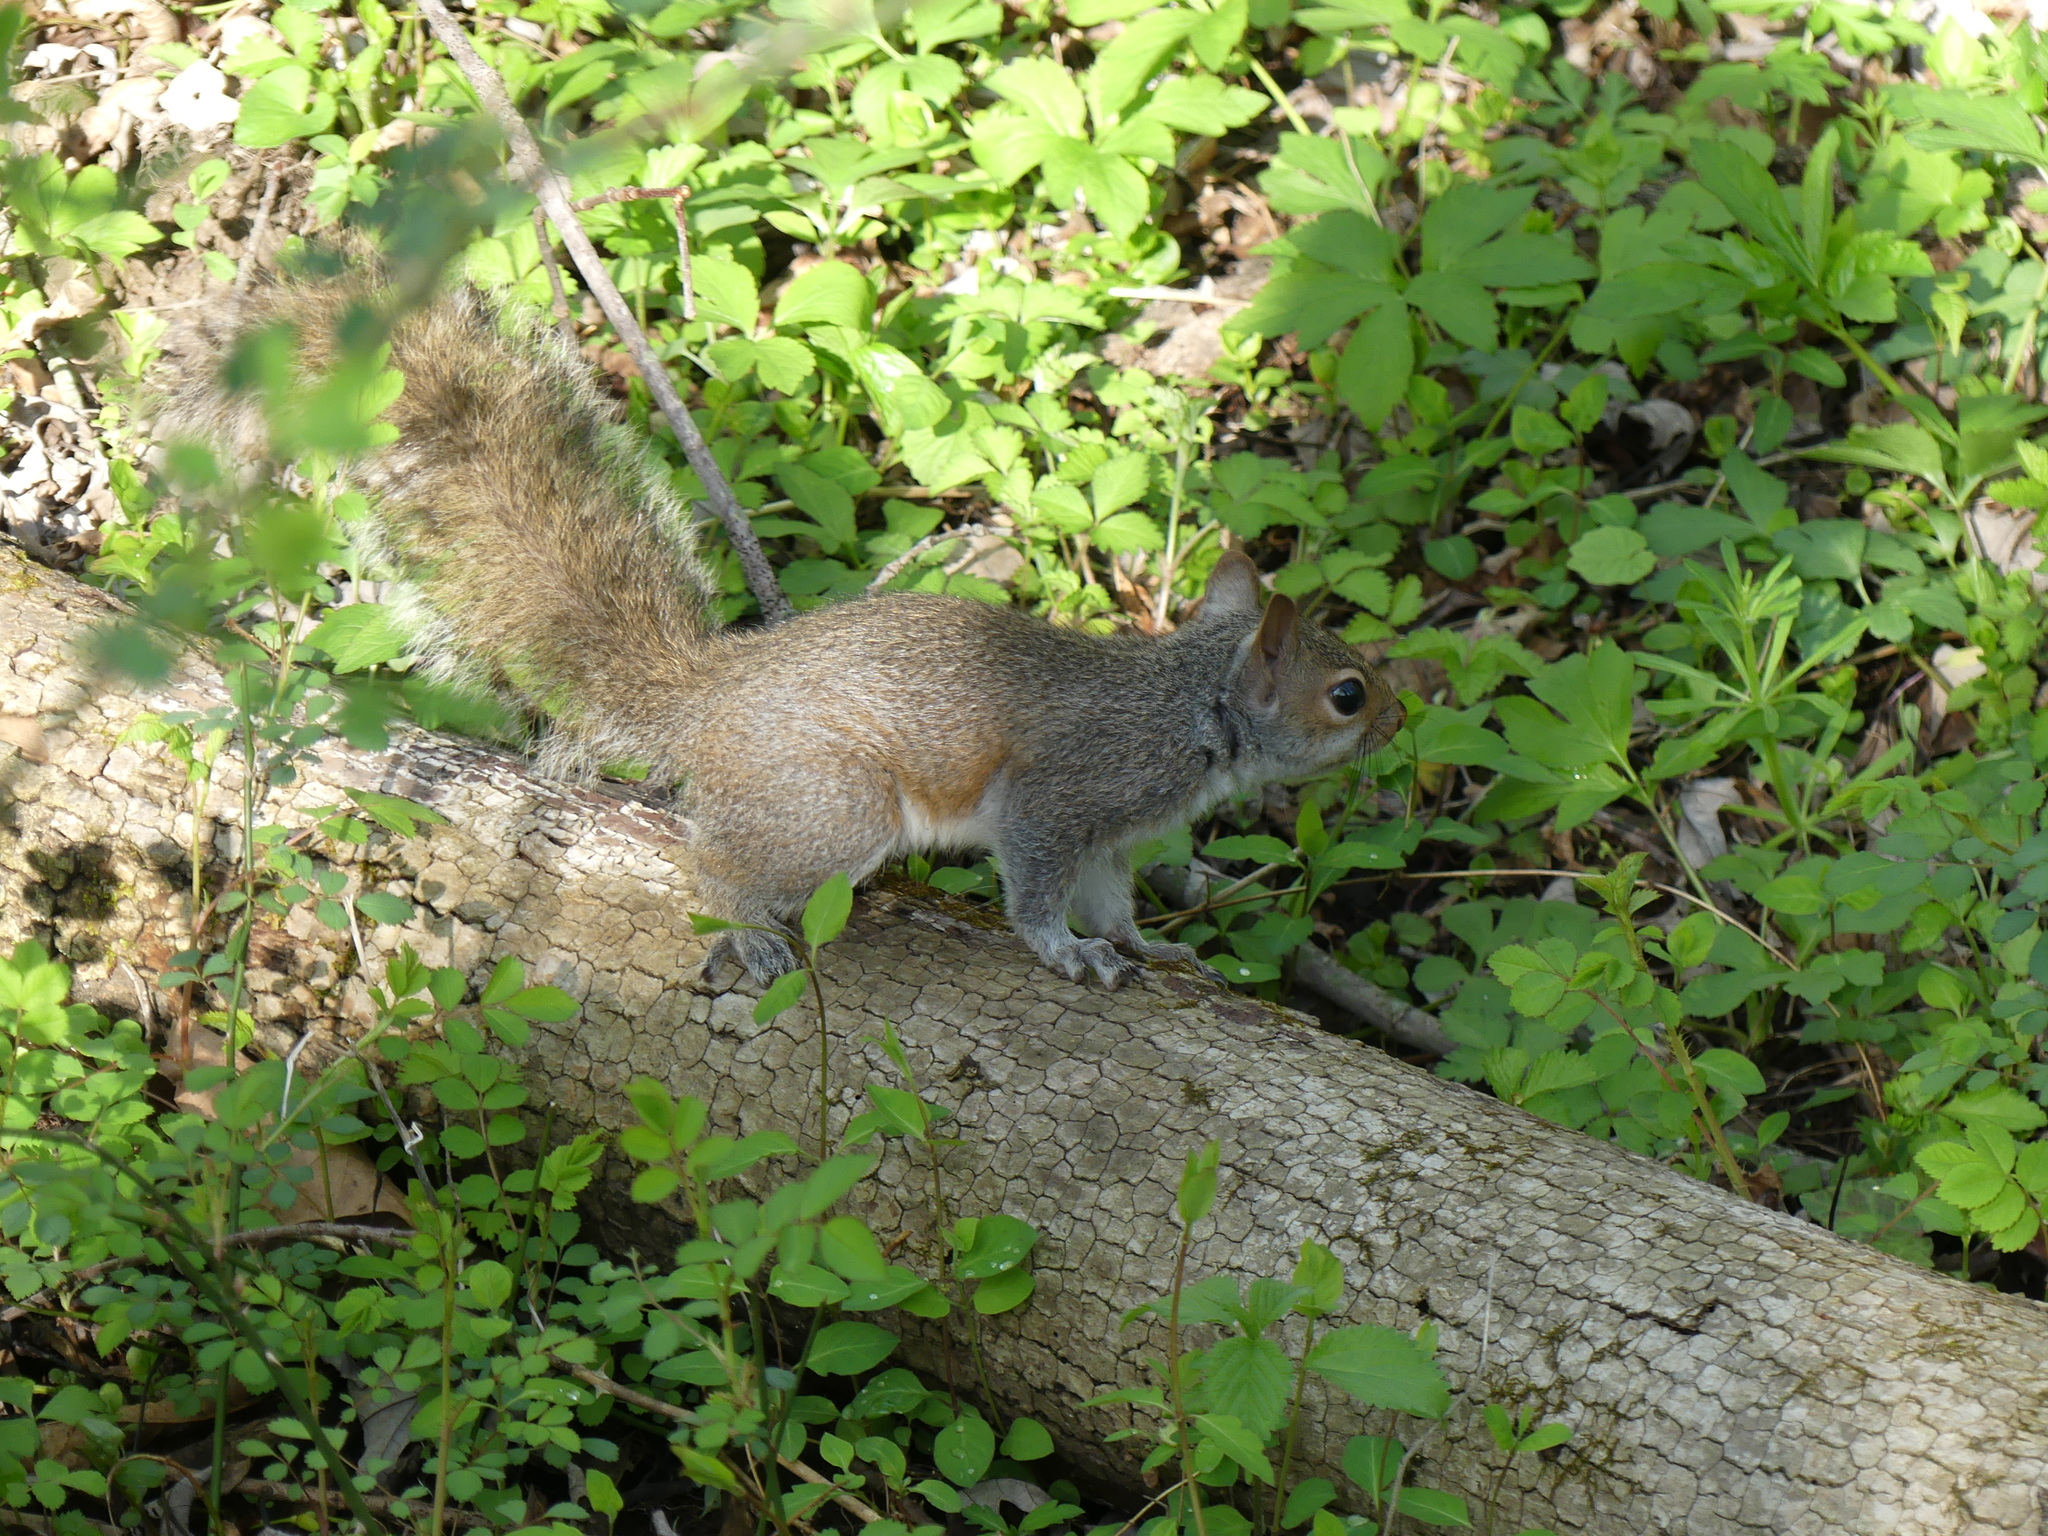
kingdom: Animalia
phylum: Chordata
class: Mammalia
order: Rodentia
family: Sciuridae
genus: Sciurus
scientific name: Sciurus carolinensis
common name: Eastern gray squirrel
